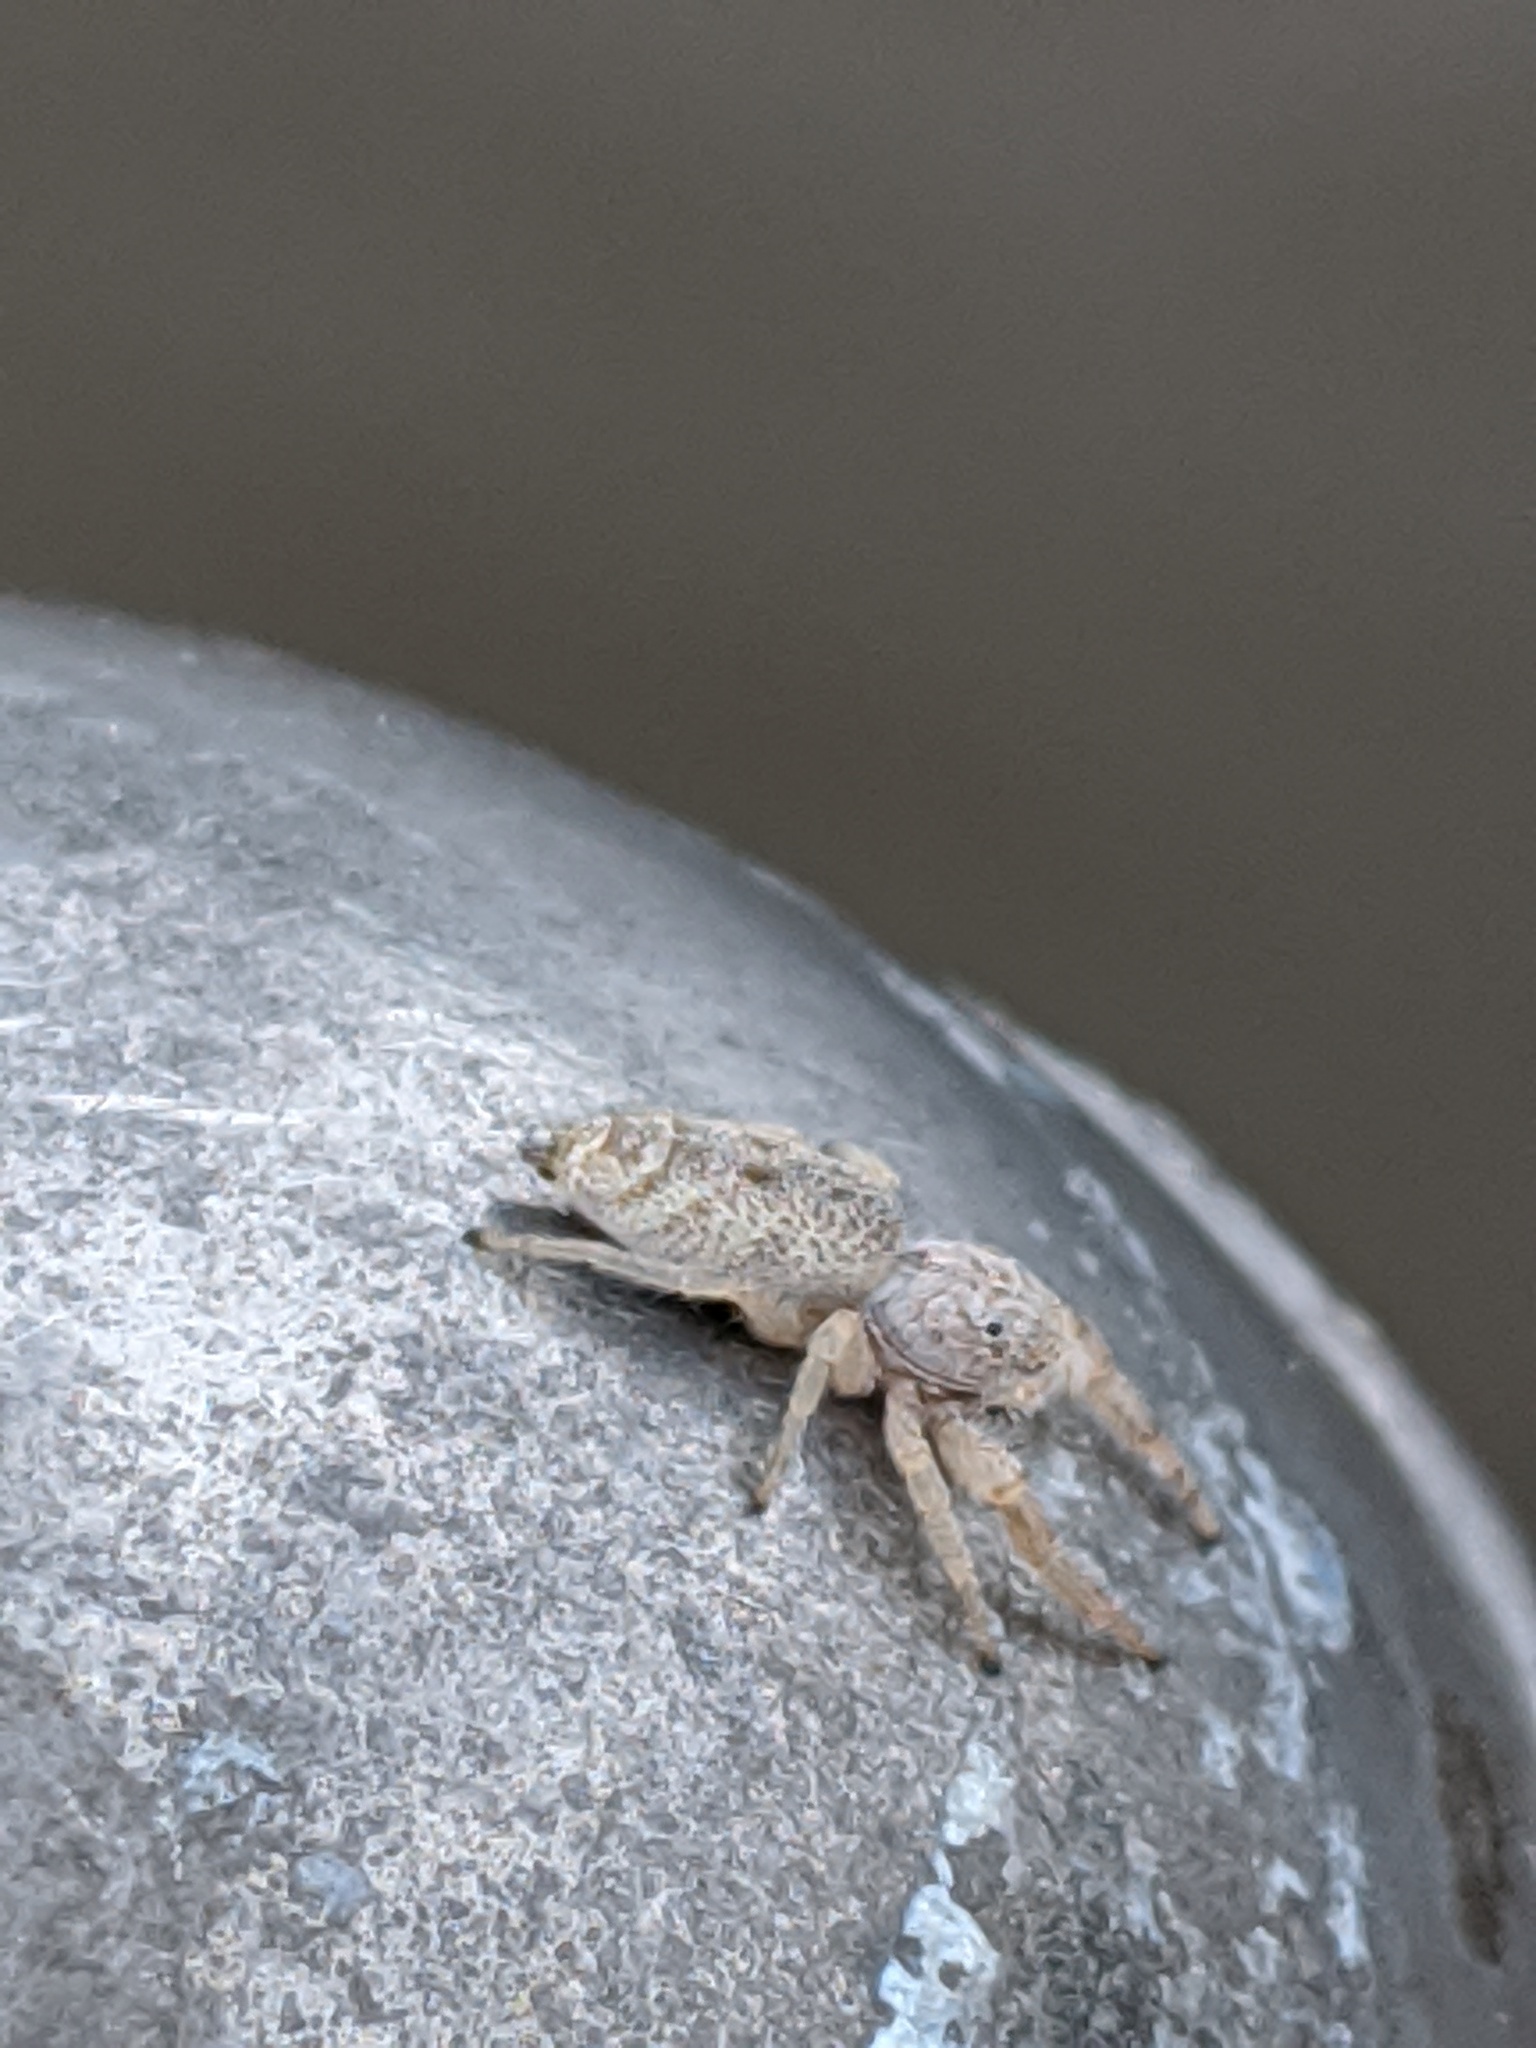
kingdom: Animalia
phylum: Arthropoda
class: Arachnida
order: Araneae
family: Salticidae
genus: Hentzia
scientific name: Hentzia mitrata
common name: White-jawed jumping spider
